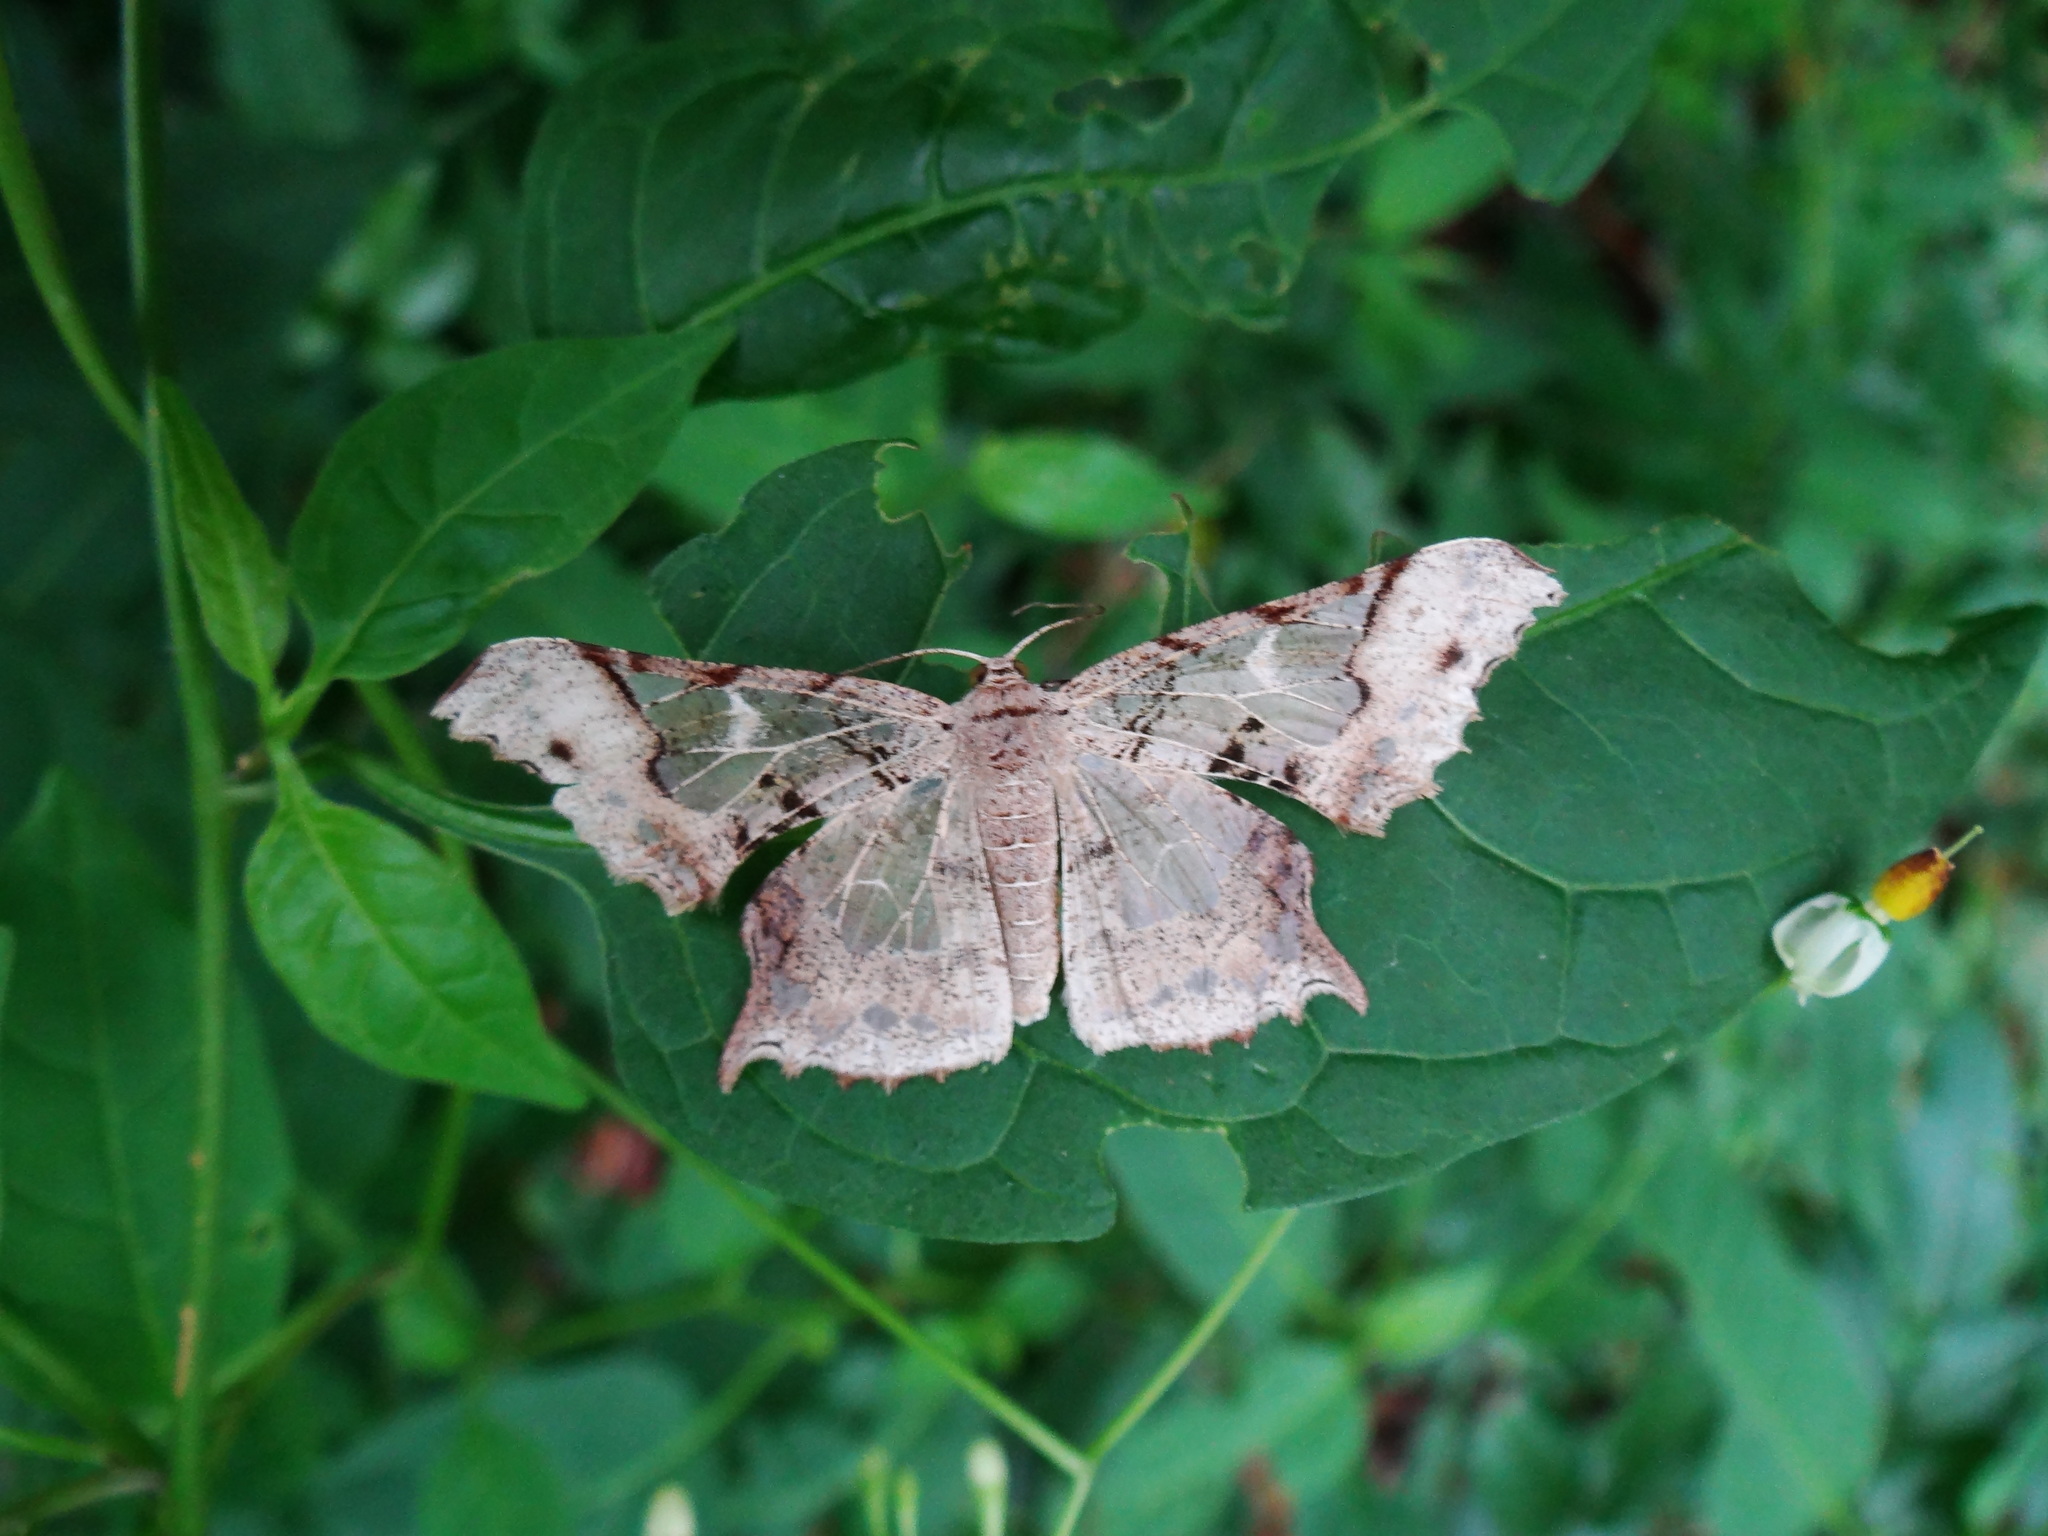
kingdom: Animalia
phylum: Arthropoda
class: Insecta
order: Lepidoptera
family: Geometridae
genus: Krananda
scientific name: Krananda semihyalina
